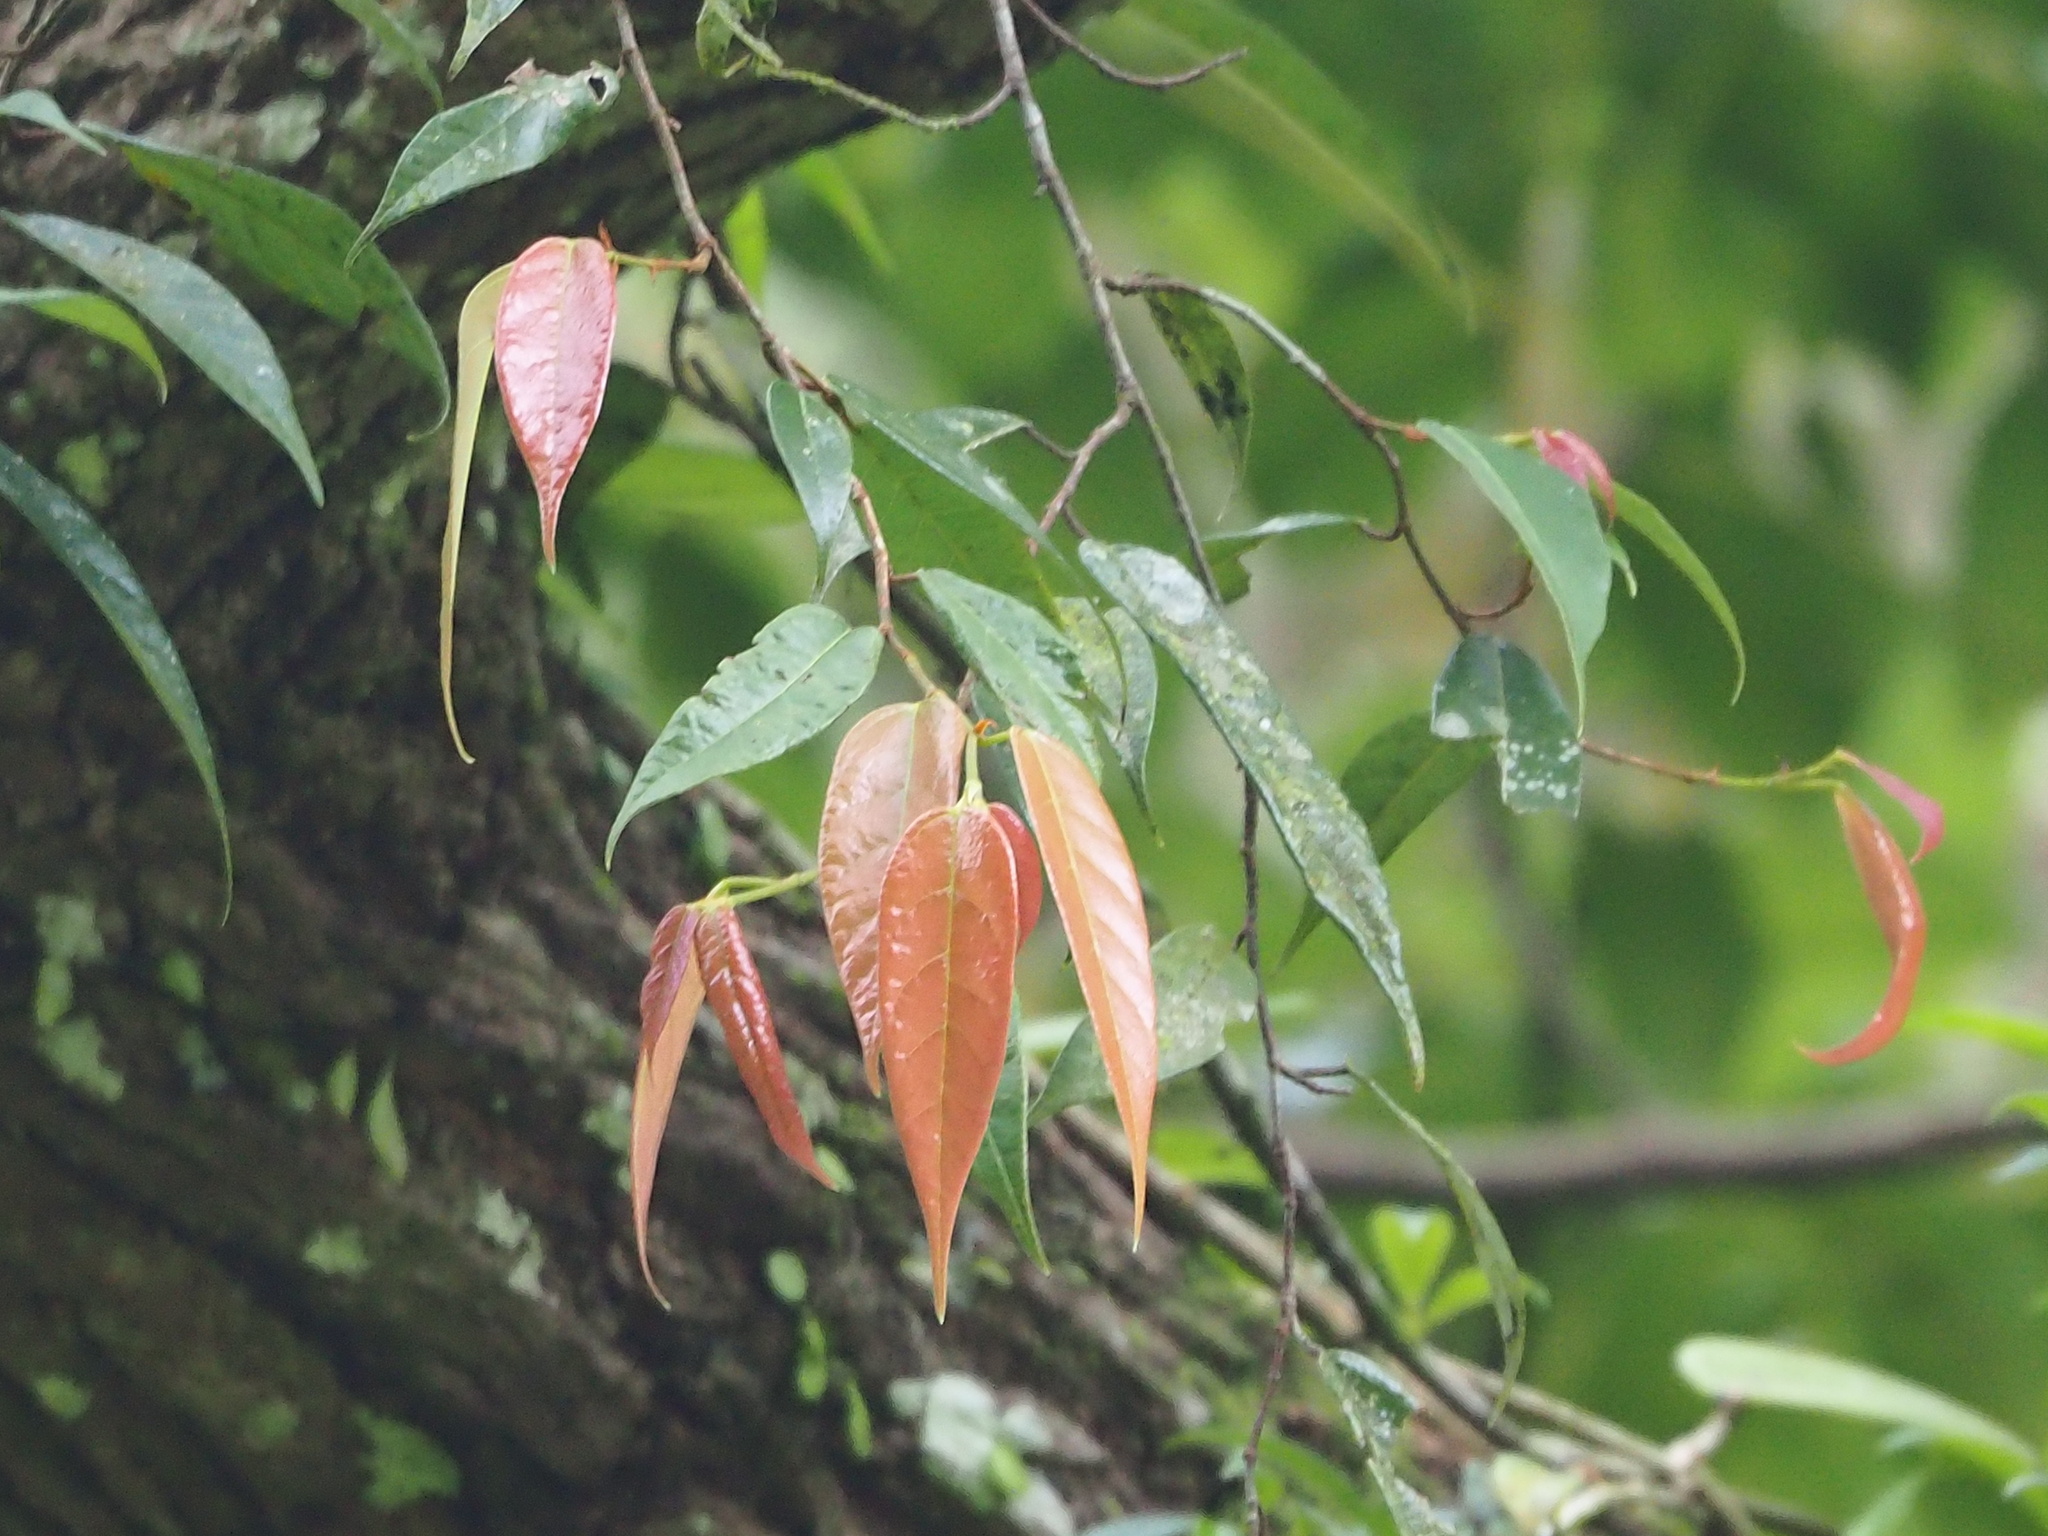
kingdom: Plantae
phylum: Tracheophyta
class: Magnoliopsida
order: Rosales
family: Moraceae
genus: Ficus
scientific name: Ficus sarmentosa
